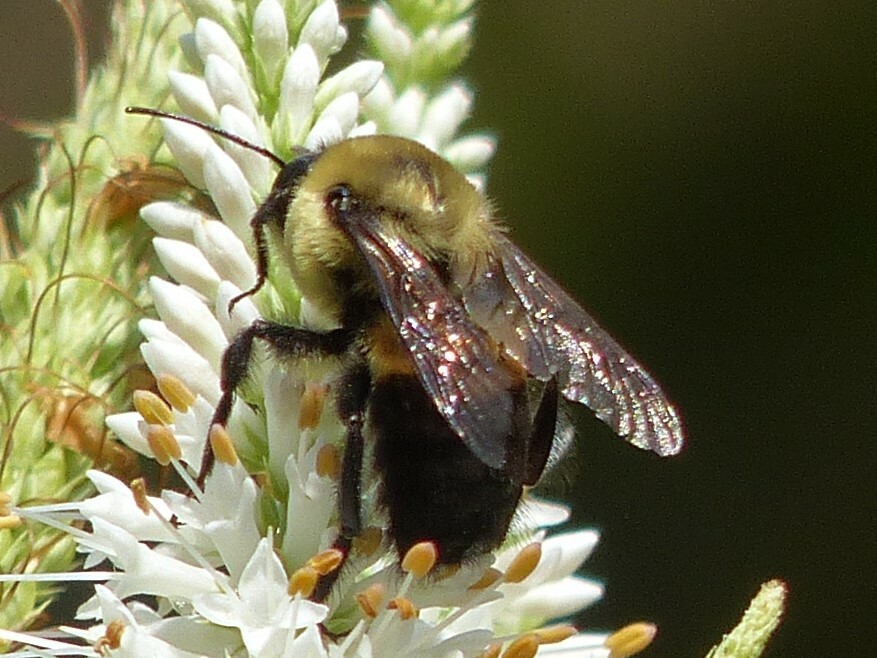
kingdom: Animalia
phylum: Arthropoda
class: Insecta
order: Hymenoptera
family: Apidae
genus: Bombus
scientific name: Bombus griseocollis
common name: Brown-belted bumble bee
